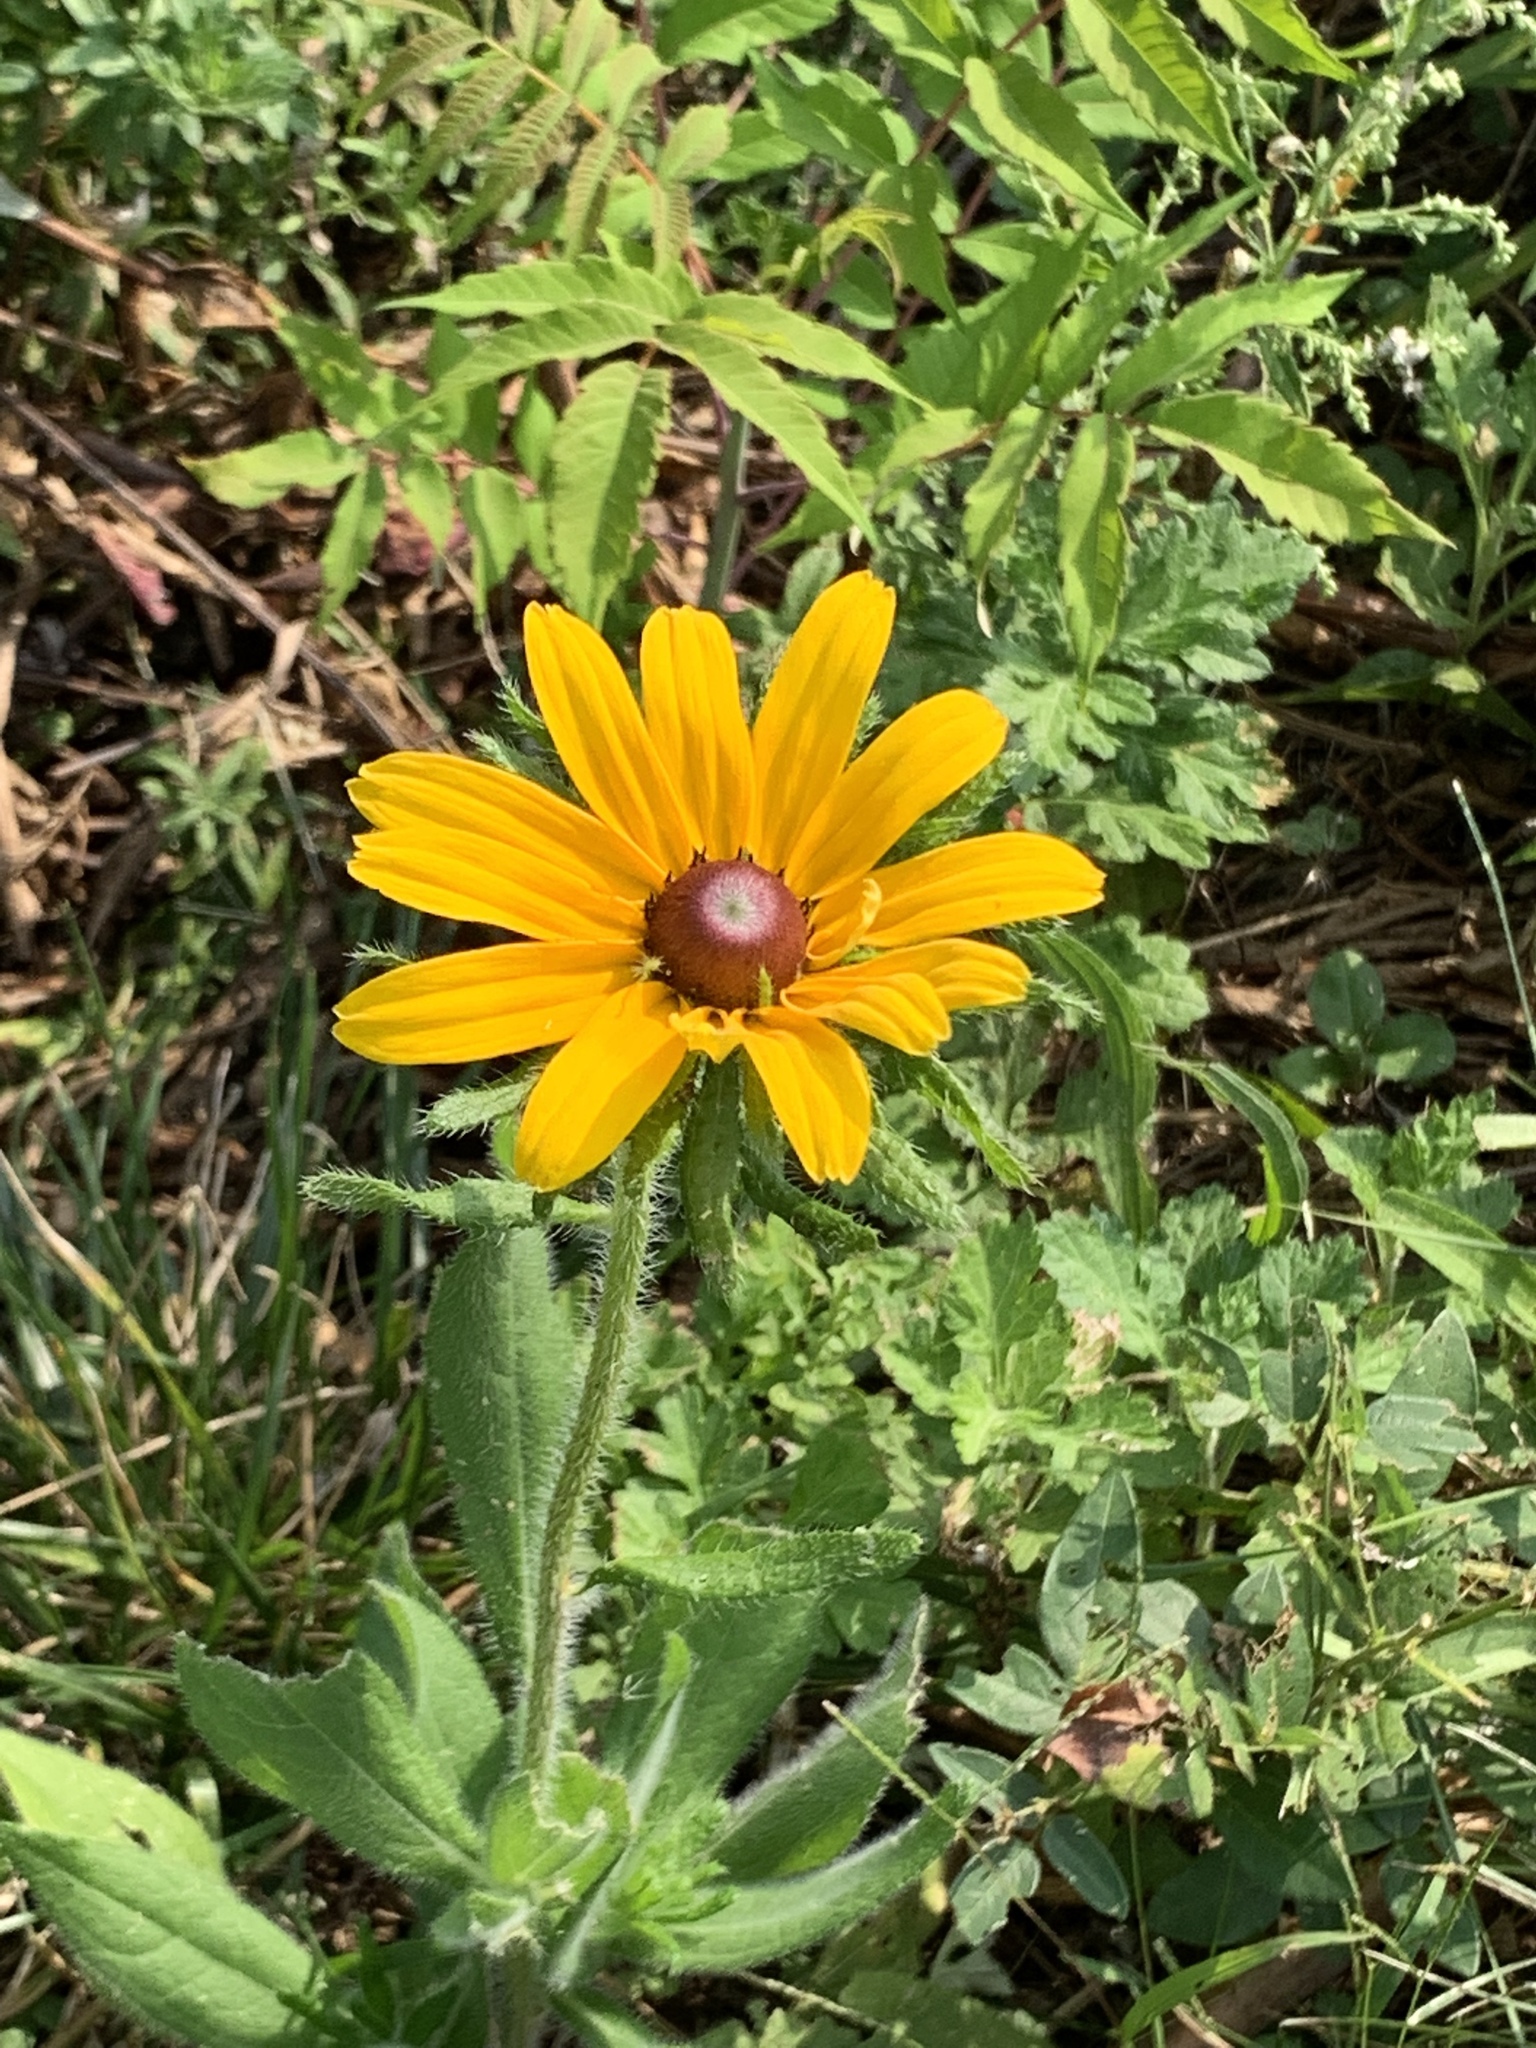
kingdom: Plantae
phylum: Tracheophyta
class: Magnoliopsida
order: Asterales
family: Asteraceae
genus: Rudbeckia
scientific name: Rudbeckia hirta
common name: Black-eyed-susan
